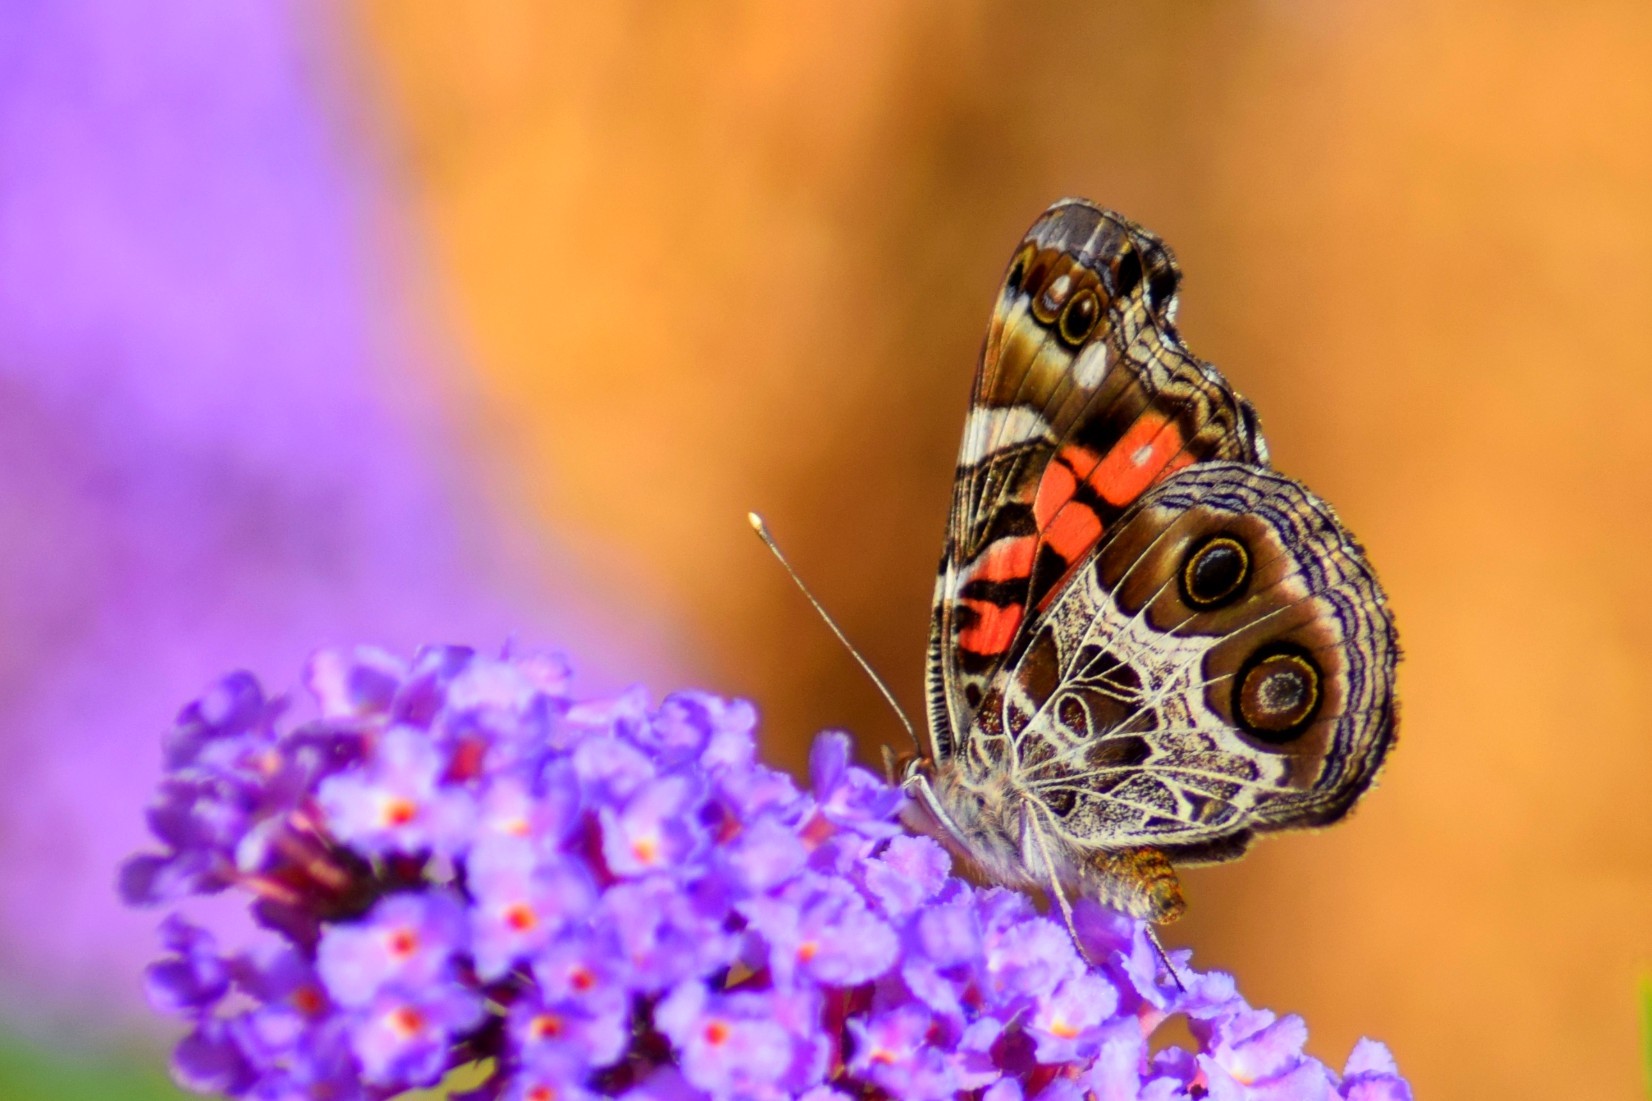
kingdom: Animalia
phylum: Arthropoda
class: Insecta
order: Lepidoptera
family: Nymphalidae
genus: Vanessa
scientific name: Vanessa virginiensis
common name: American lady
